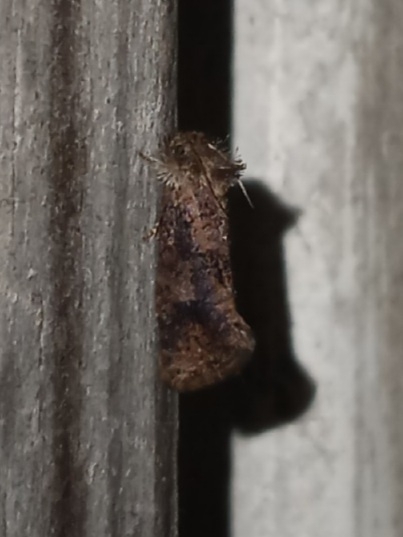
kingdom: Animalia
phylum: Arthropoda
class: Insecta
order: Lepidoptera
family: Tineidae
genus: Acrolophus
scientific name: Acrolophus panamae
